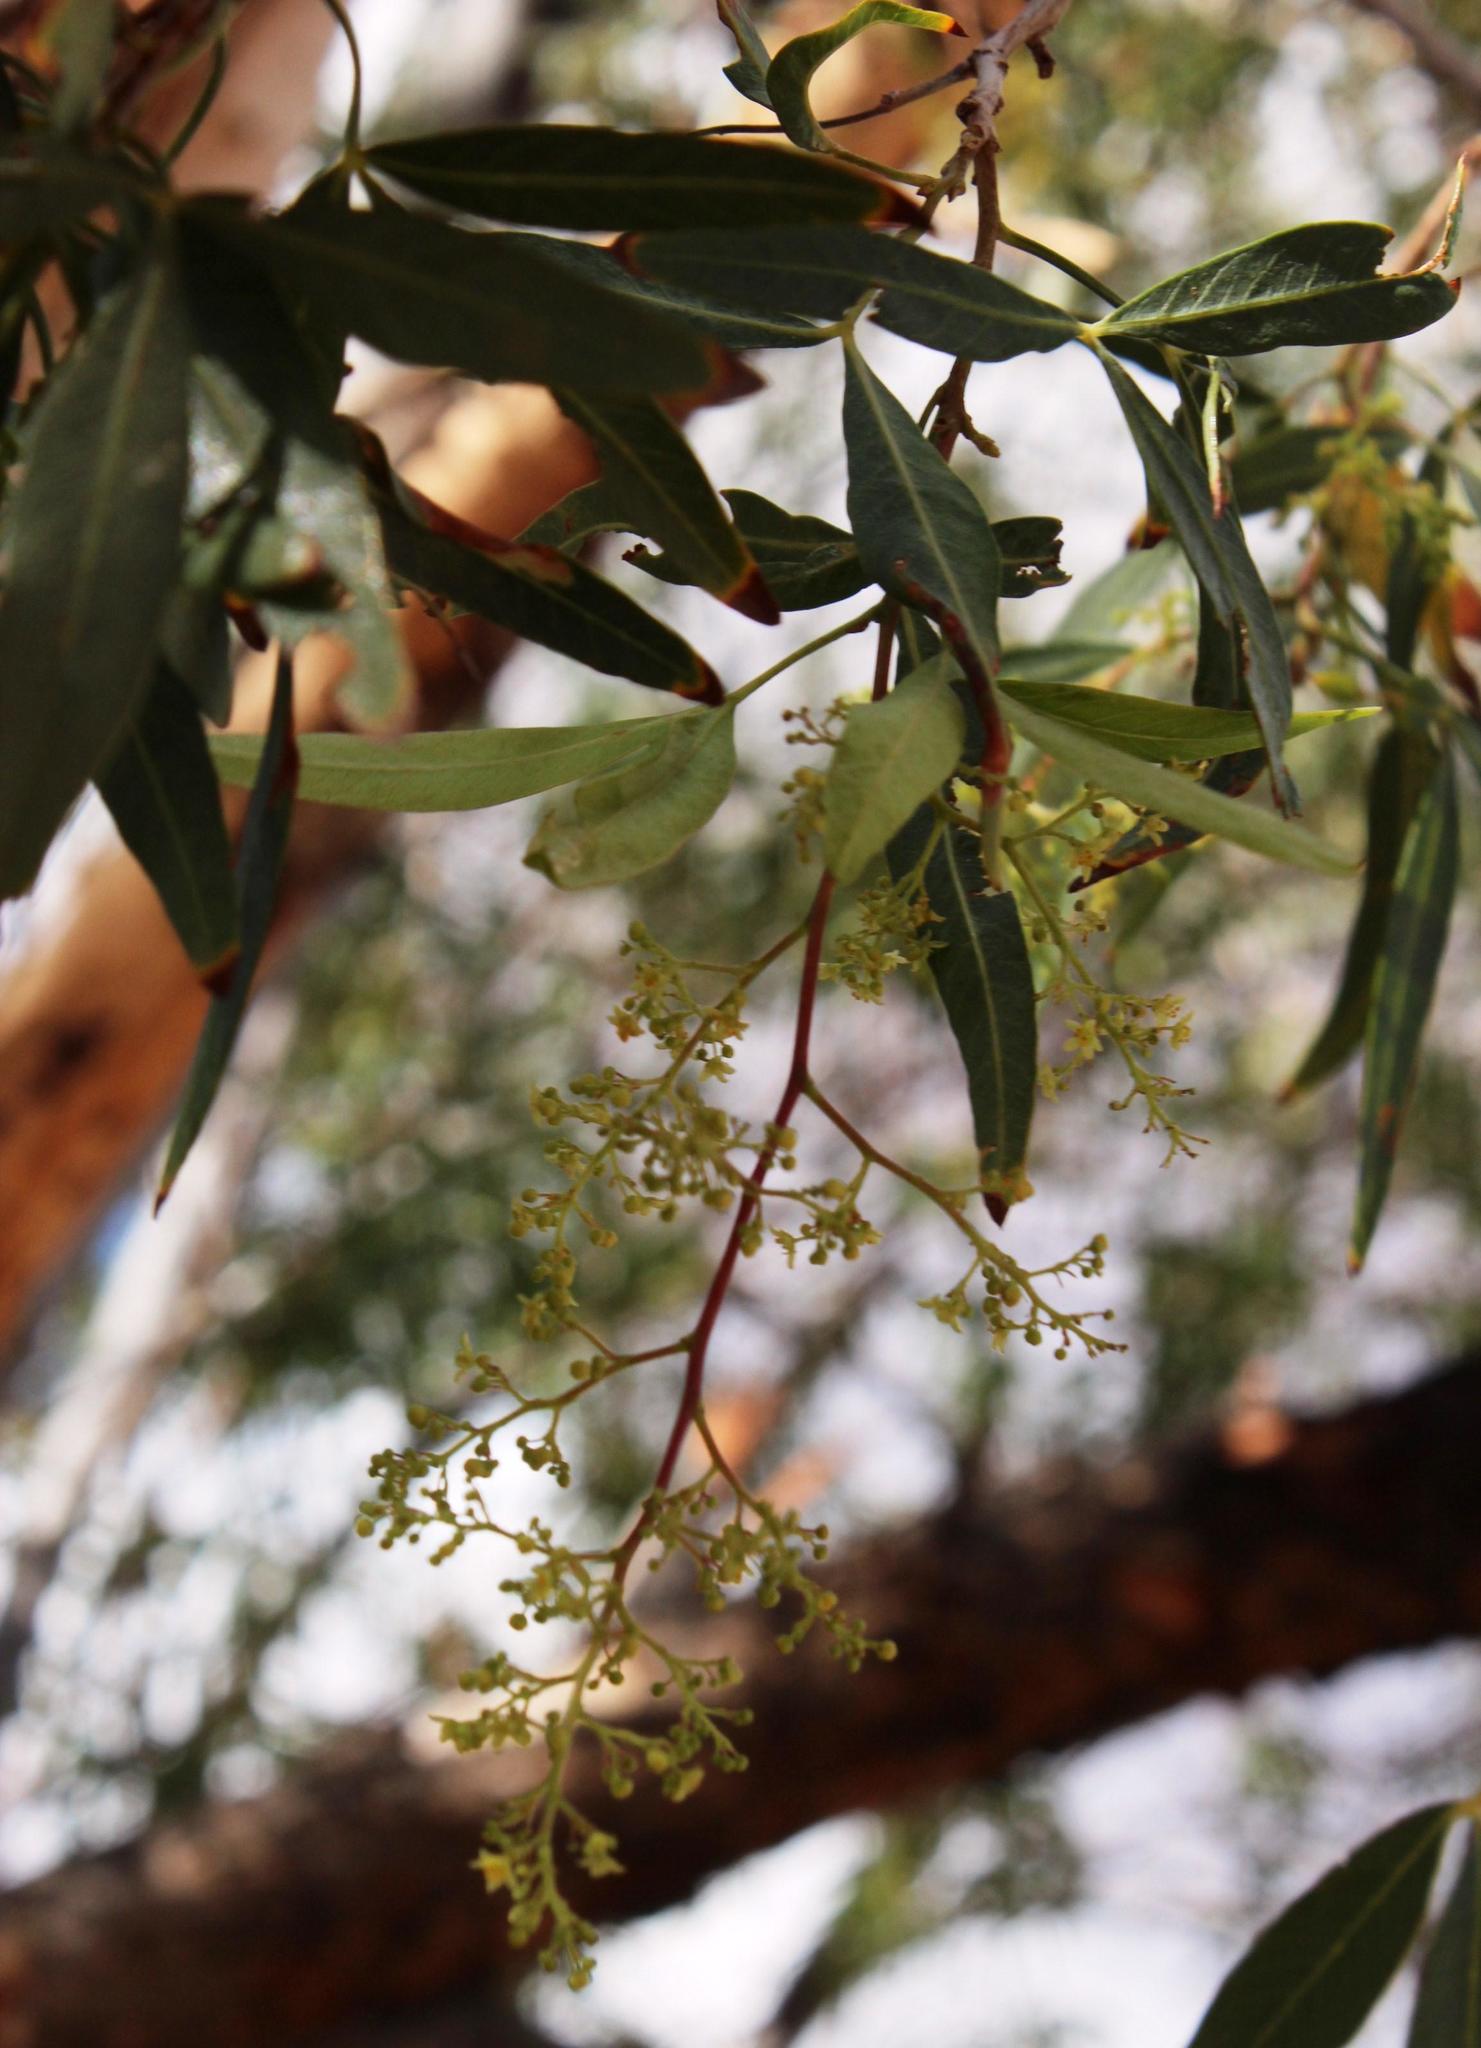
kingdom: Plantae
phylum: Tracheophyta
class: Magnoliopsida
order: Sapindales
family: Anacardiaceae
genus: Searsia
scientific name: Searsia pendulina
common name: White karee
